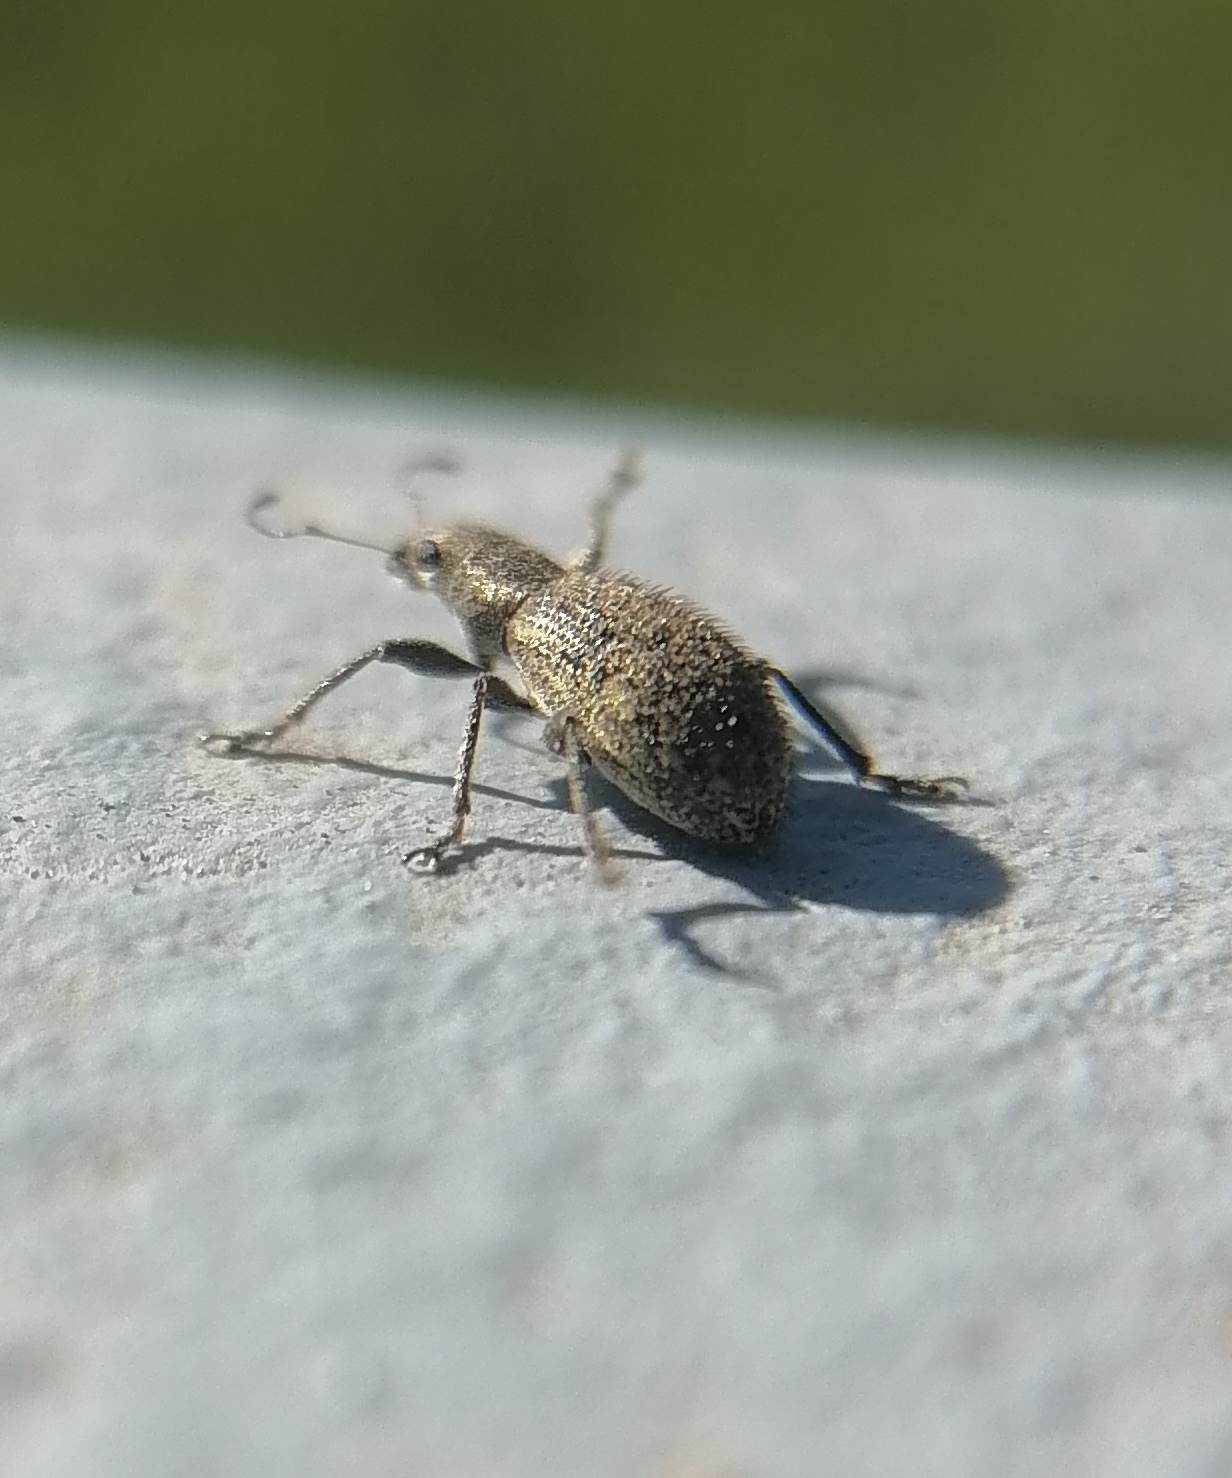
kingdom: Animalia
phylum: Arthropoda
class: Insecta
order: Coleoptera
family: Curculionidae
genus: Polydrusus
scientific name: Polydrusus inustus
